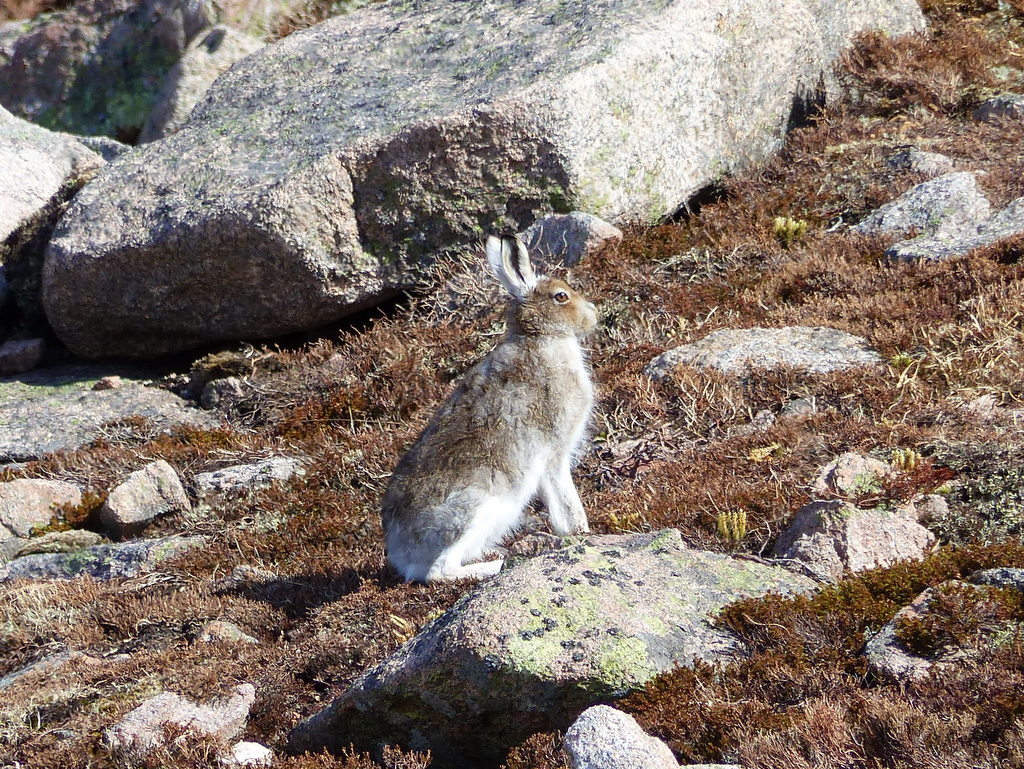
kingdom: Animalia
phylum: Chordata
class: Mammalia
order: Lagomorpha
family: Leporidae
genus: Lepus
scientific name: Lepus timidus
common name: Mountain hare
